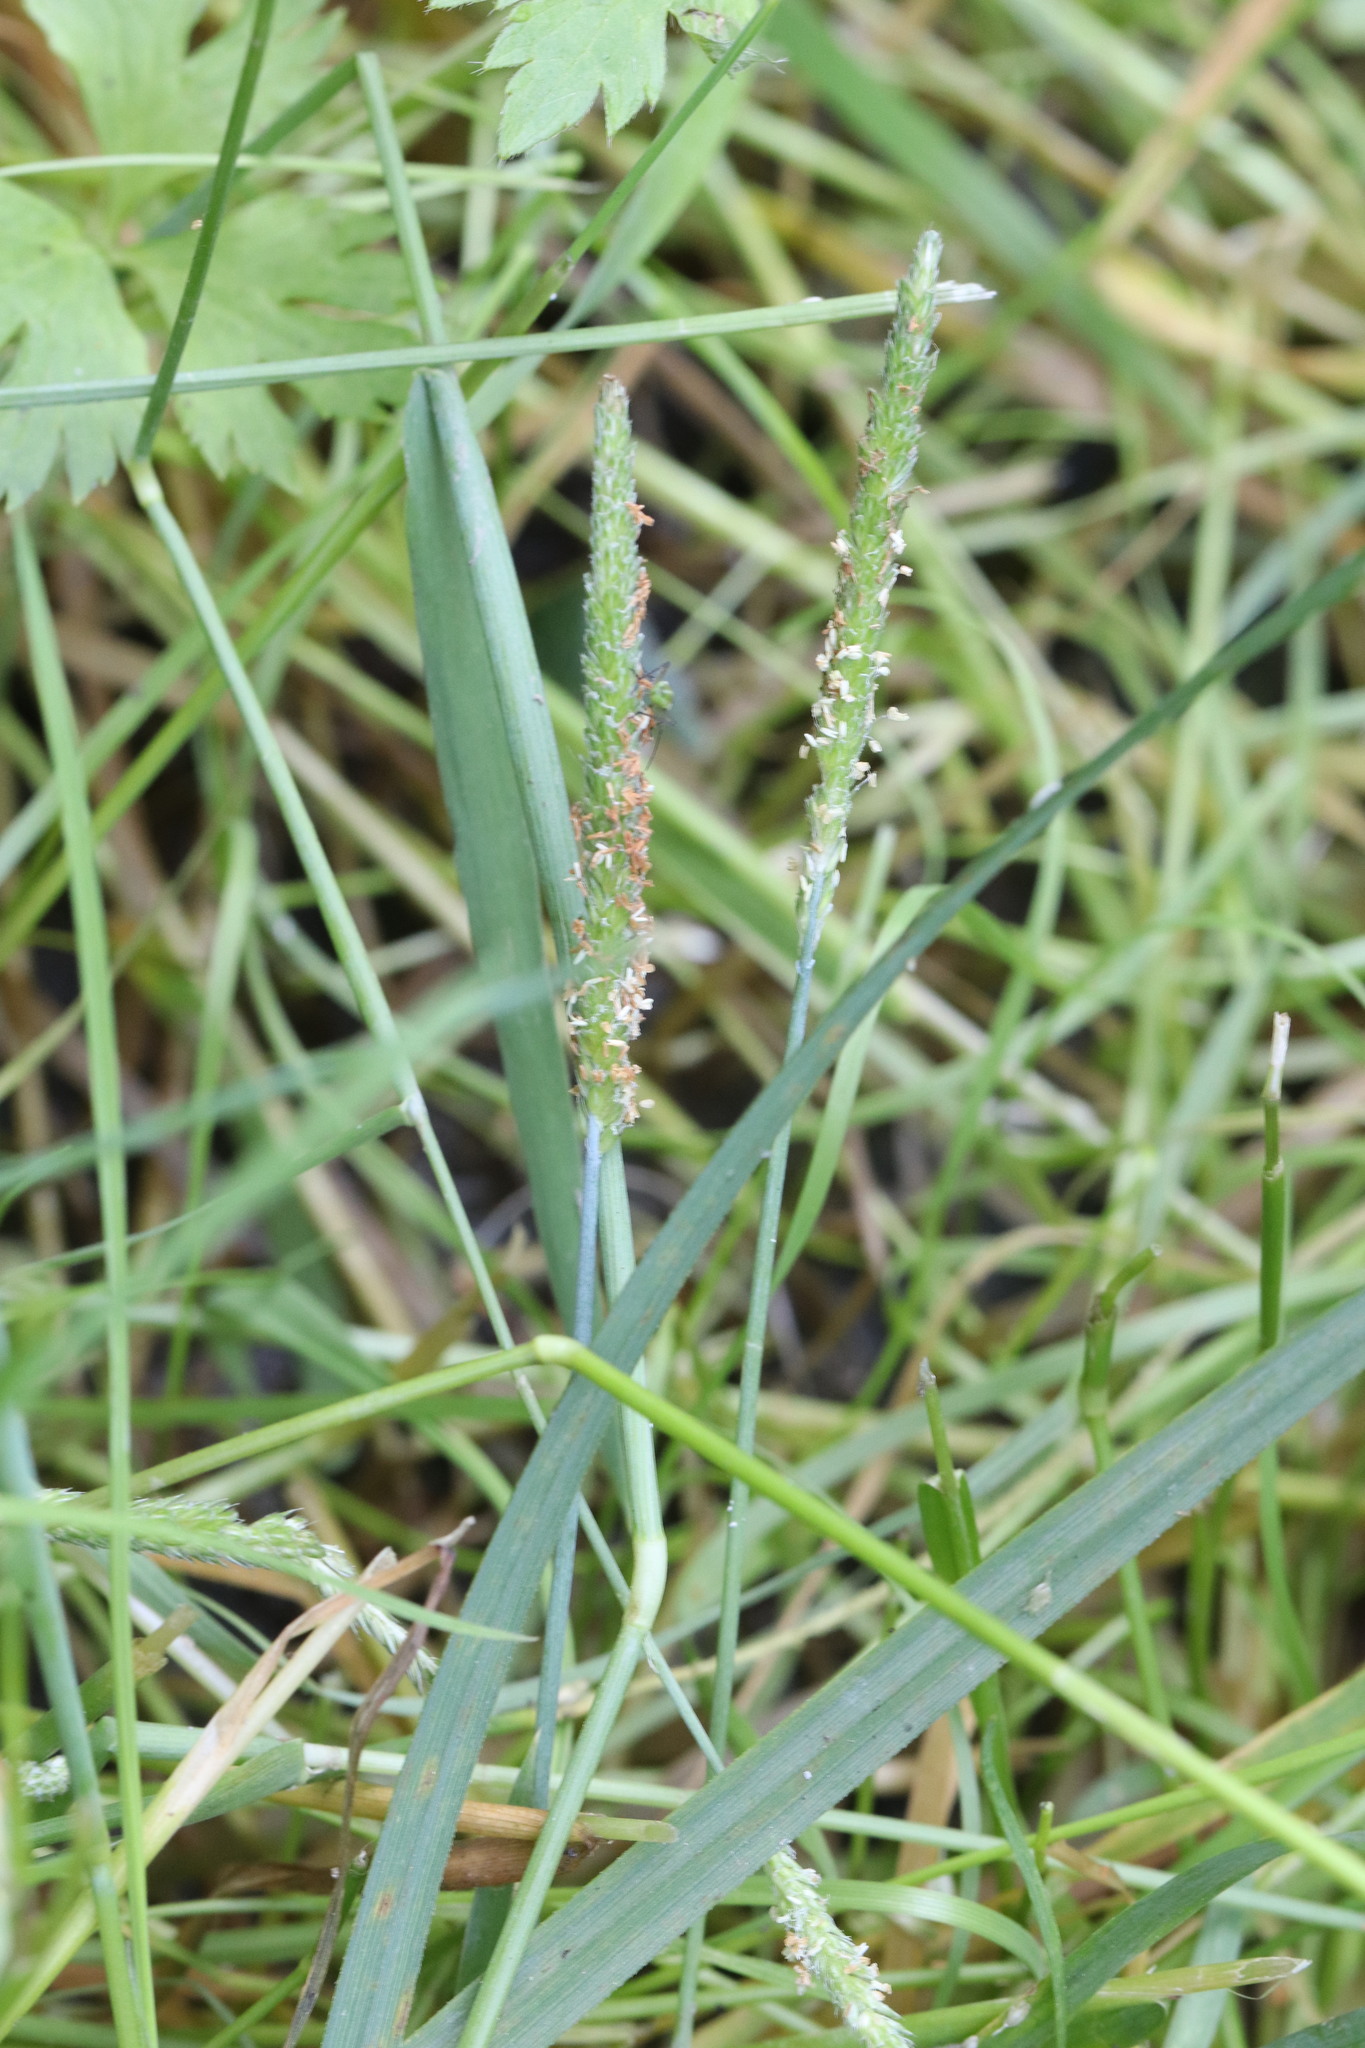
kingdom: Plantae
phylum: Tracheophyta
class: Liliopsida
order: Poales
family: Poaceae
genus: Alopecurus
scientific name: Alopecurus aequalis
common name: Orange foxtail
